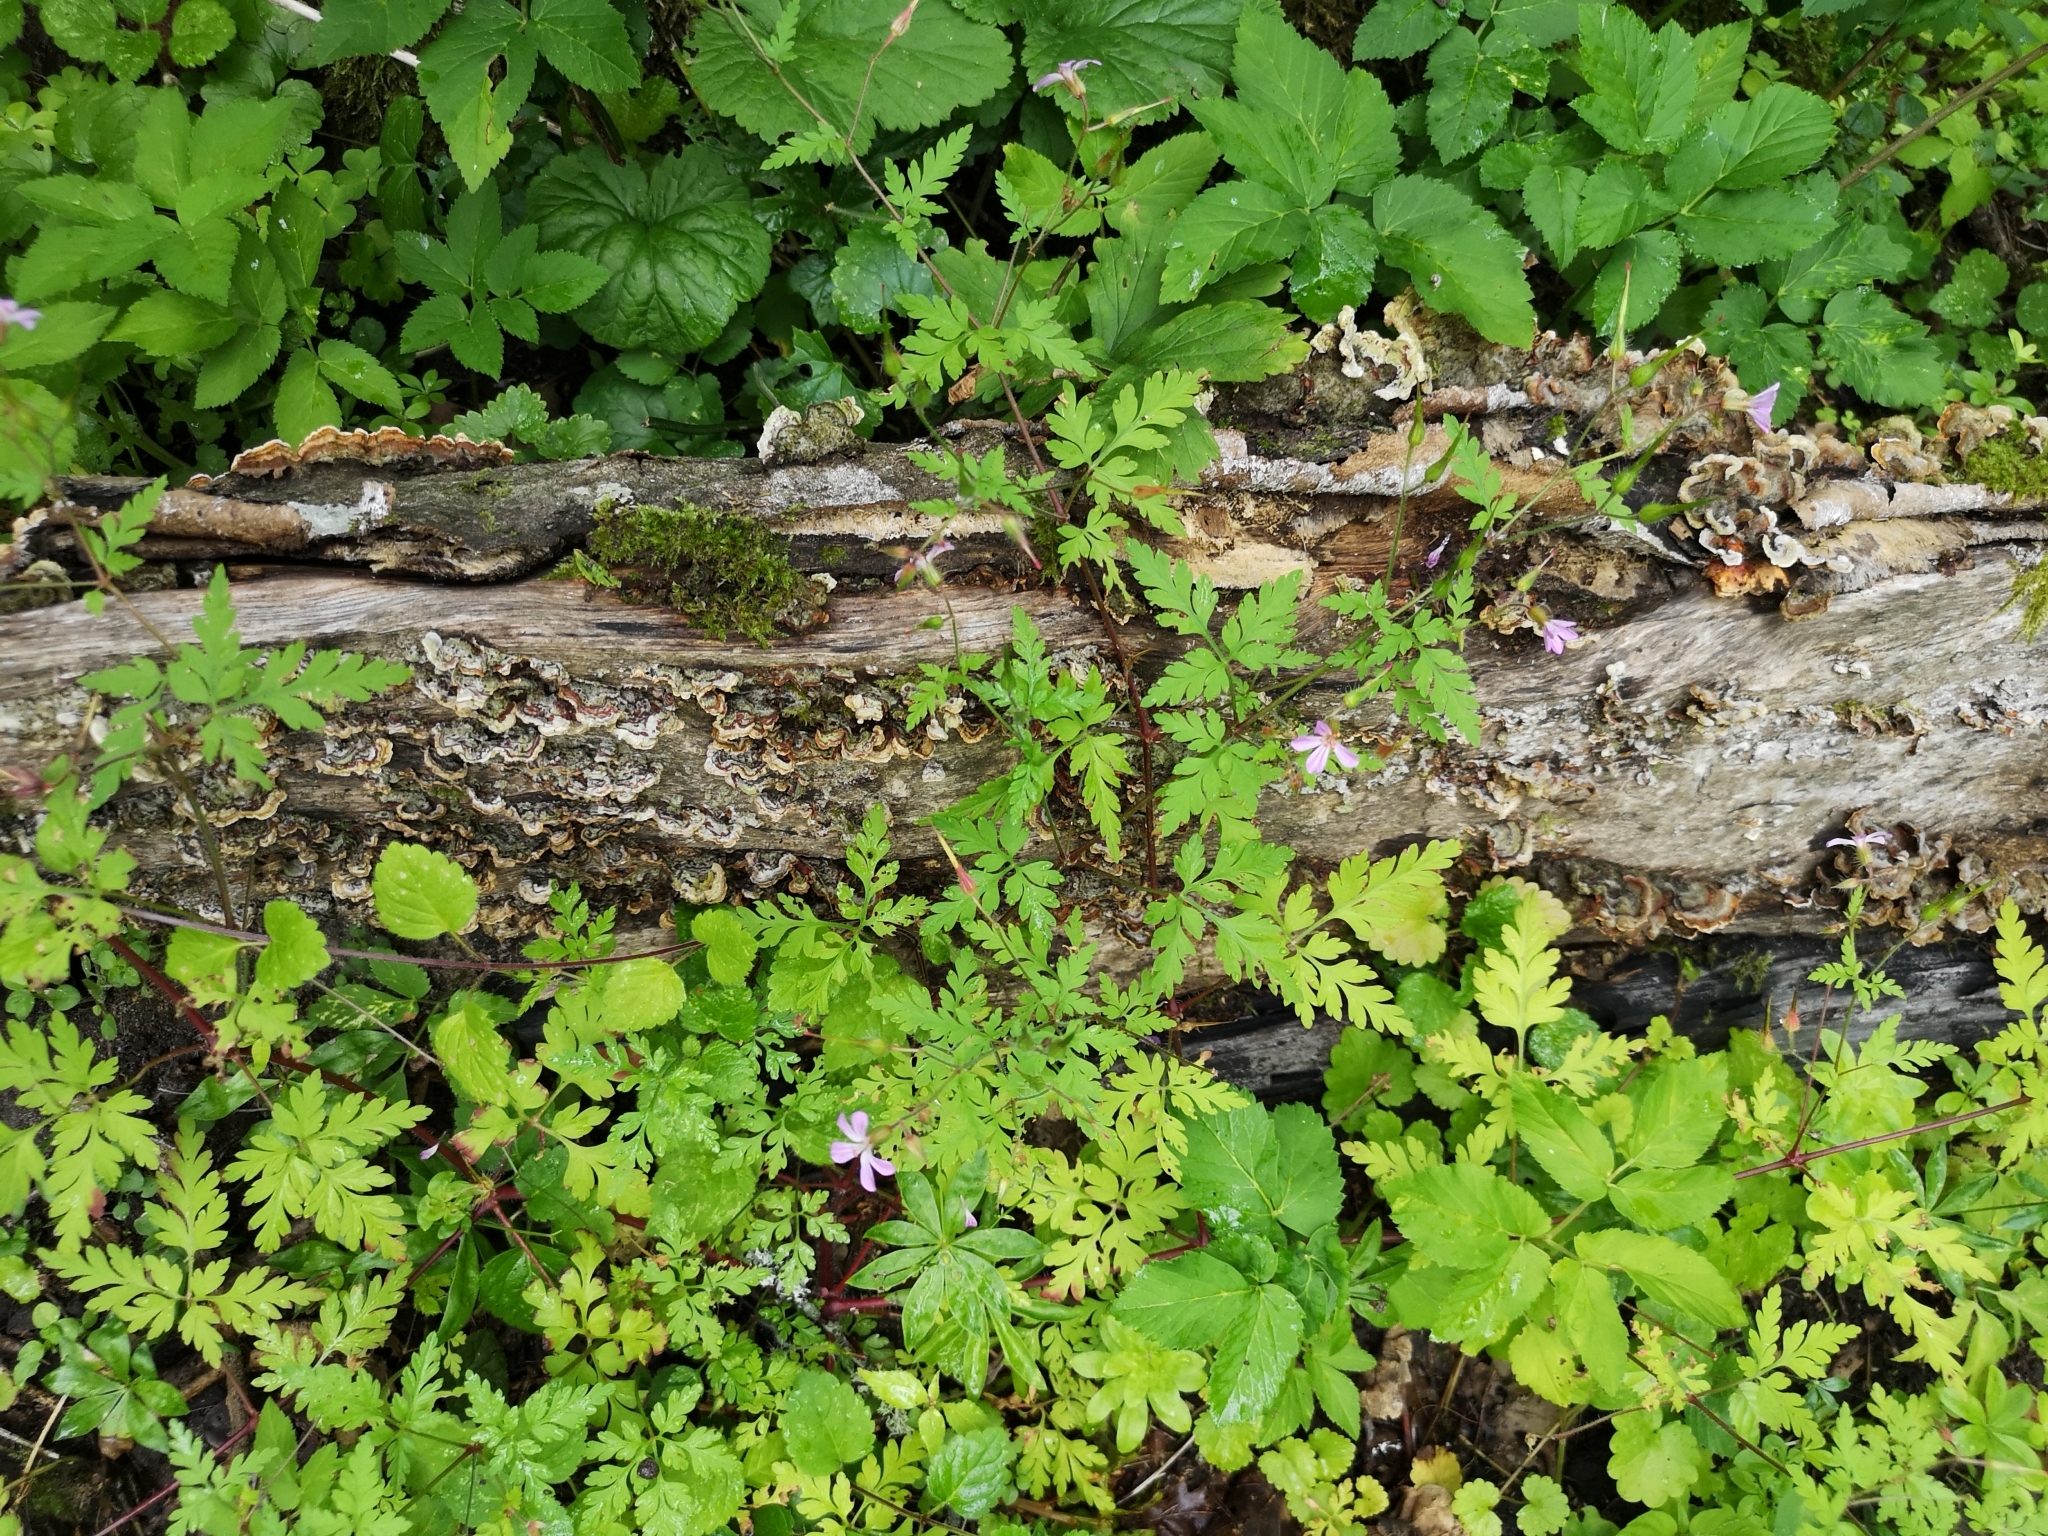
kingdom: Plantae
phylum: Tracheophyta
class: Magnoliopsida
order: Geraniales
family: Geraniaceae
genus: Geranium
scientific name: Geranium robertianum
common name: Herb-robert
